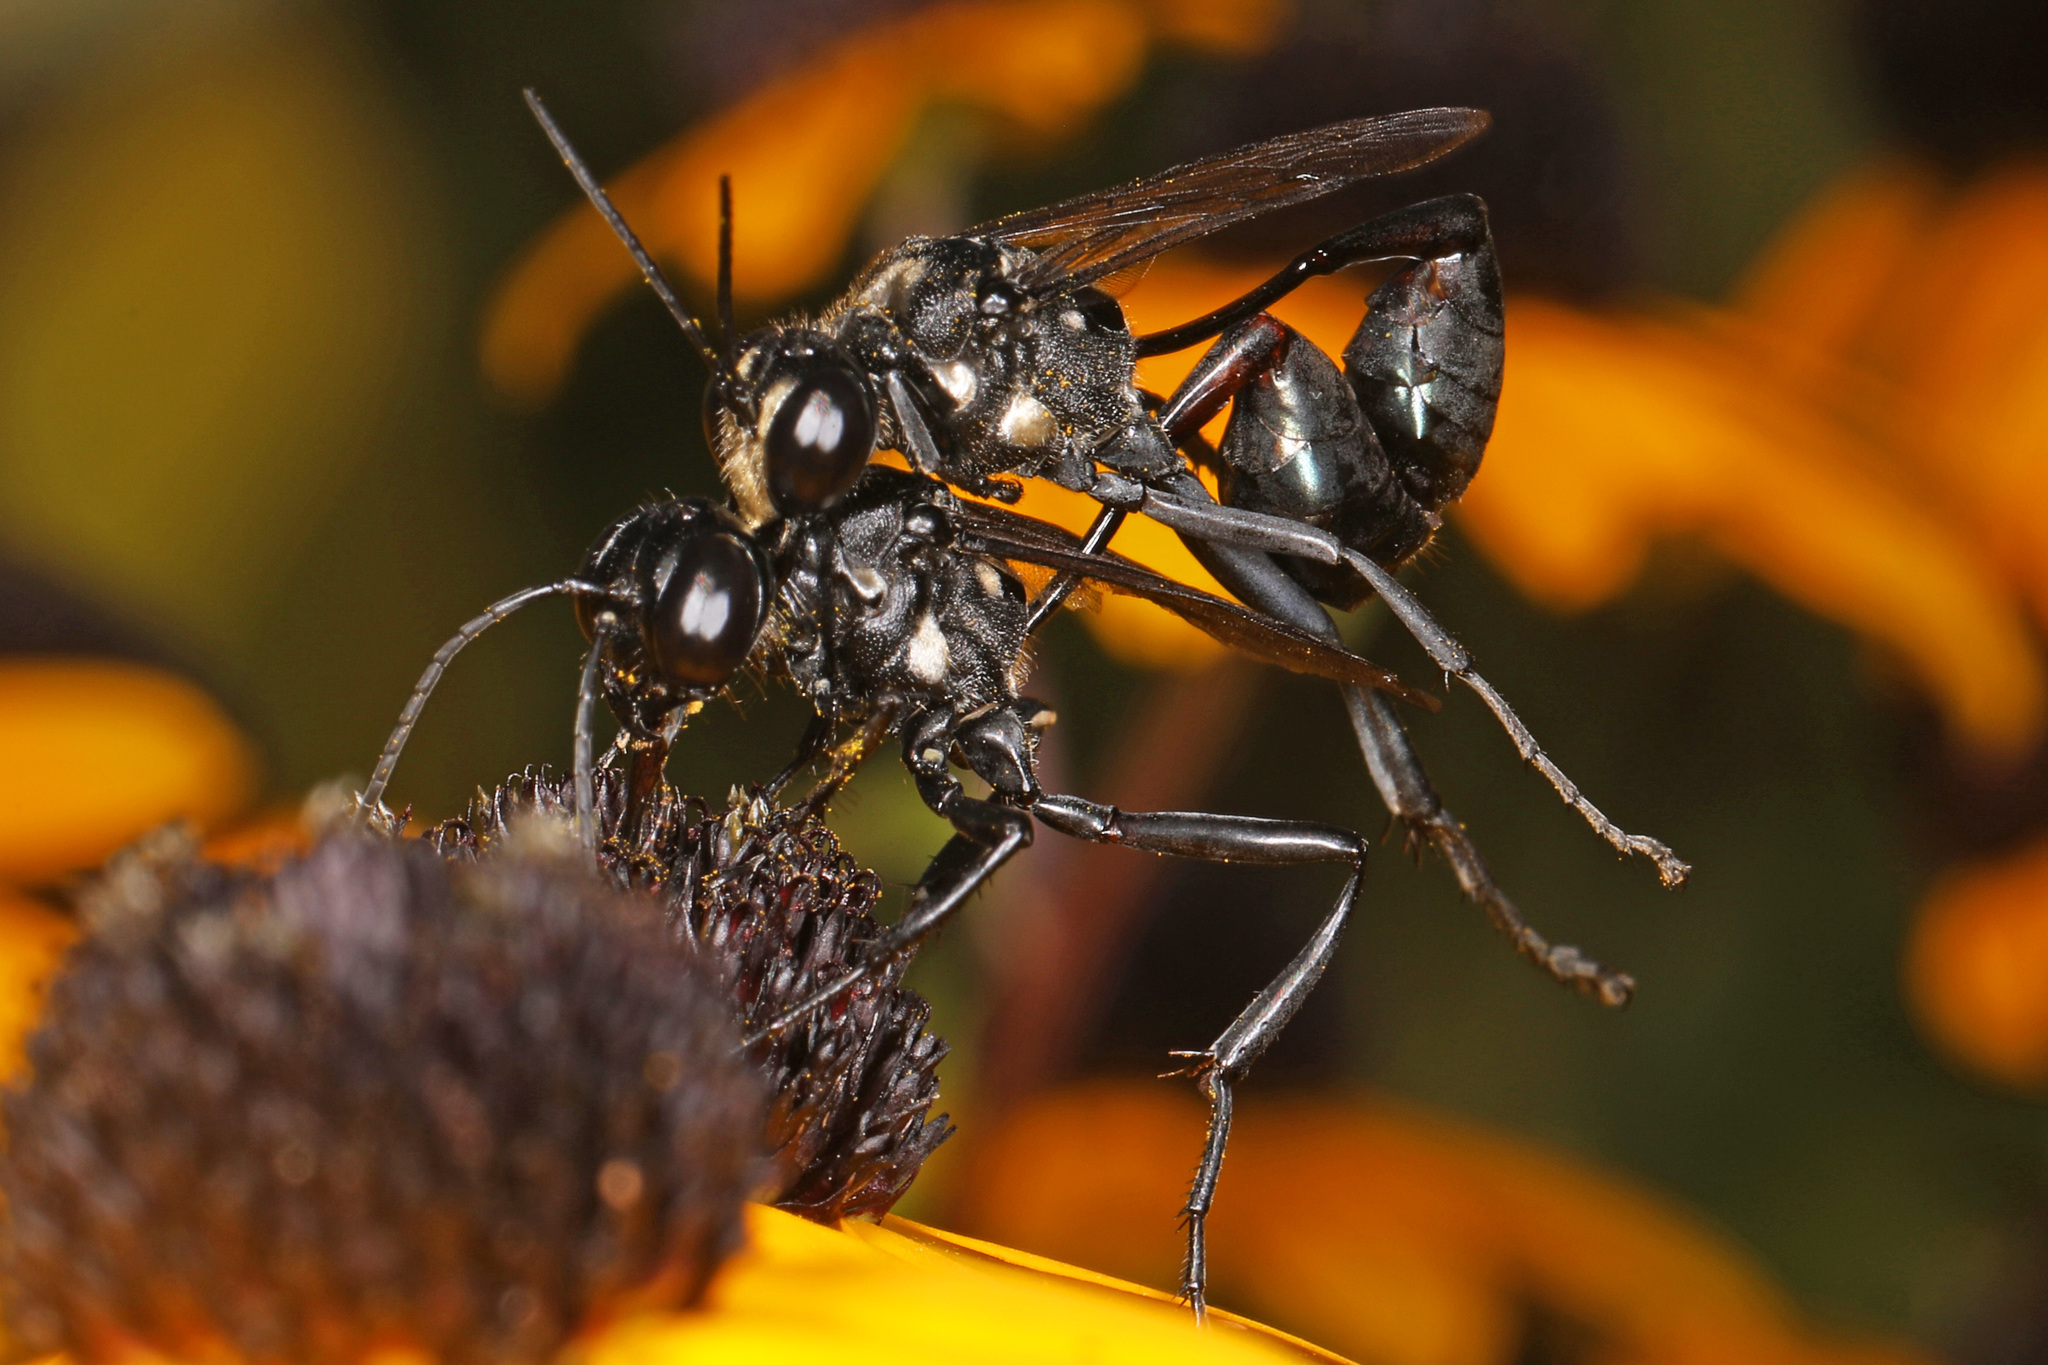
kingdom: Animalia
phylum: Arthropoda
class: Insecta
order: Hymenoptera
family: Sphecidae
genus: Eremnophila
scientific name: Eremnophila aureonotata
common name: Gold-marked thread-waisted wasp
